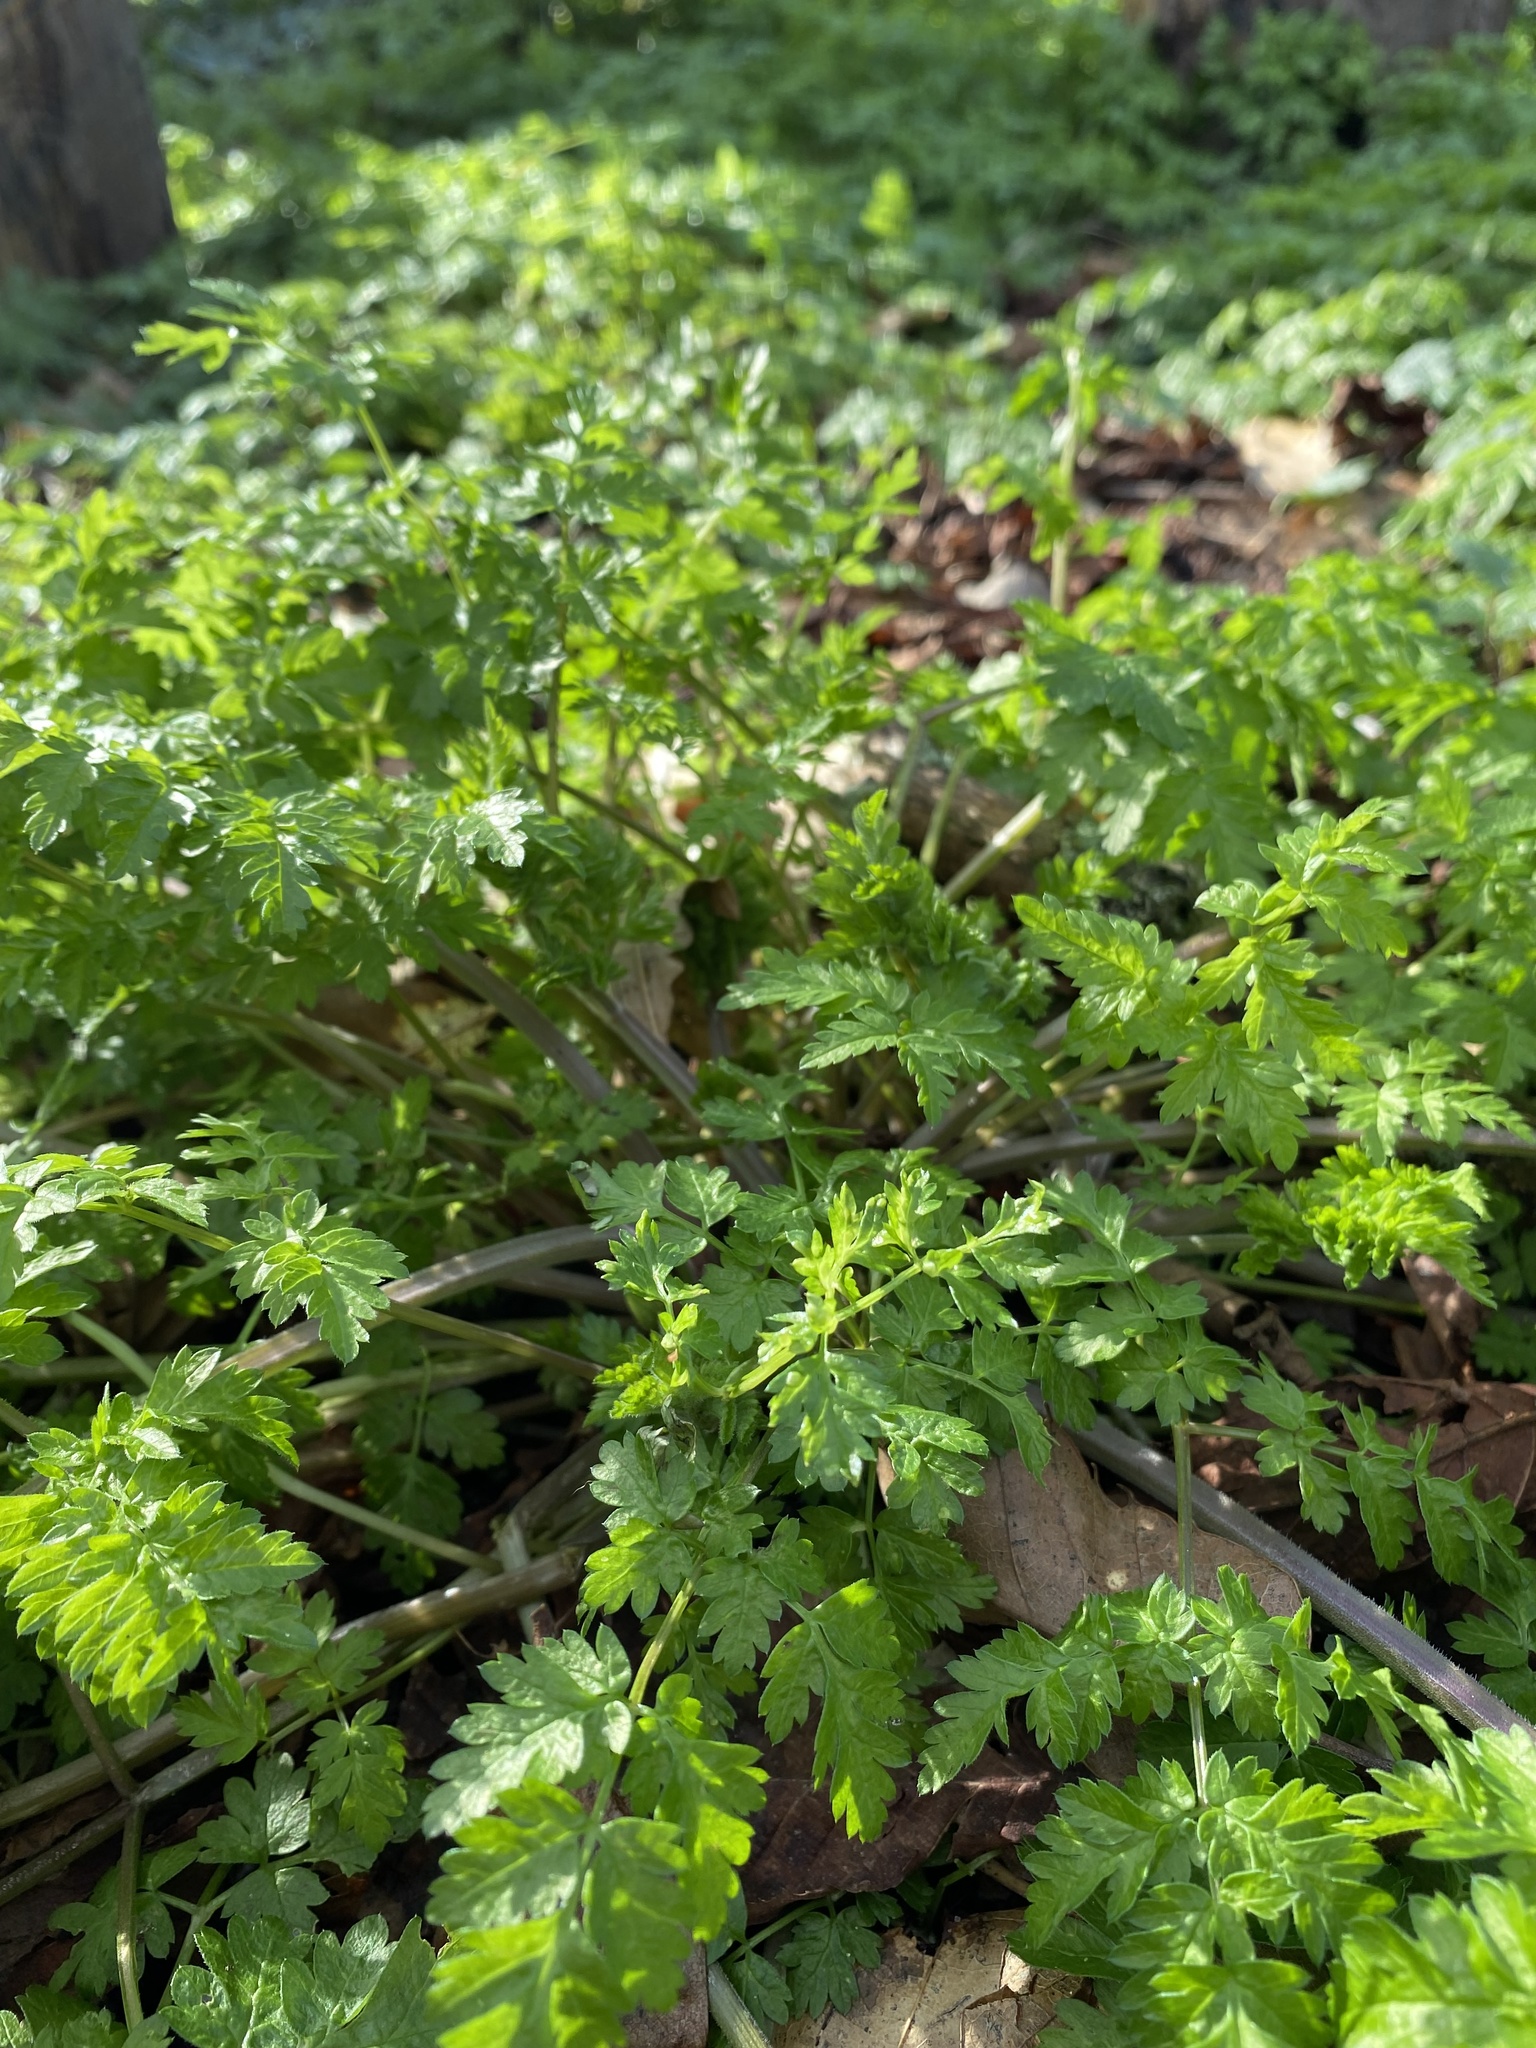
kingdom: Plantae
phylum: Tracheophyta
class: Magnoliopsida
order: Apiales
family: Apiaceae
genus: Anthriscus
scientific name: Anthriscus sylvestris
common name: Cow parsley
